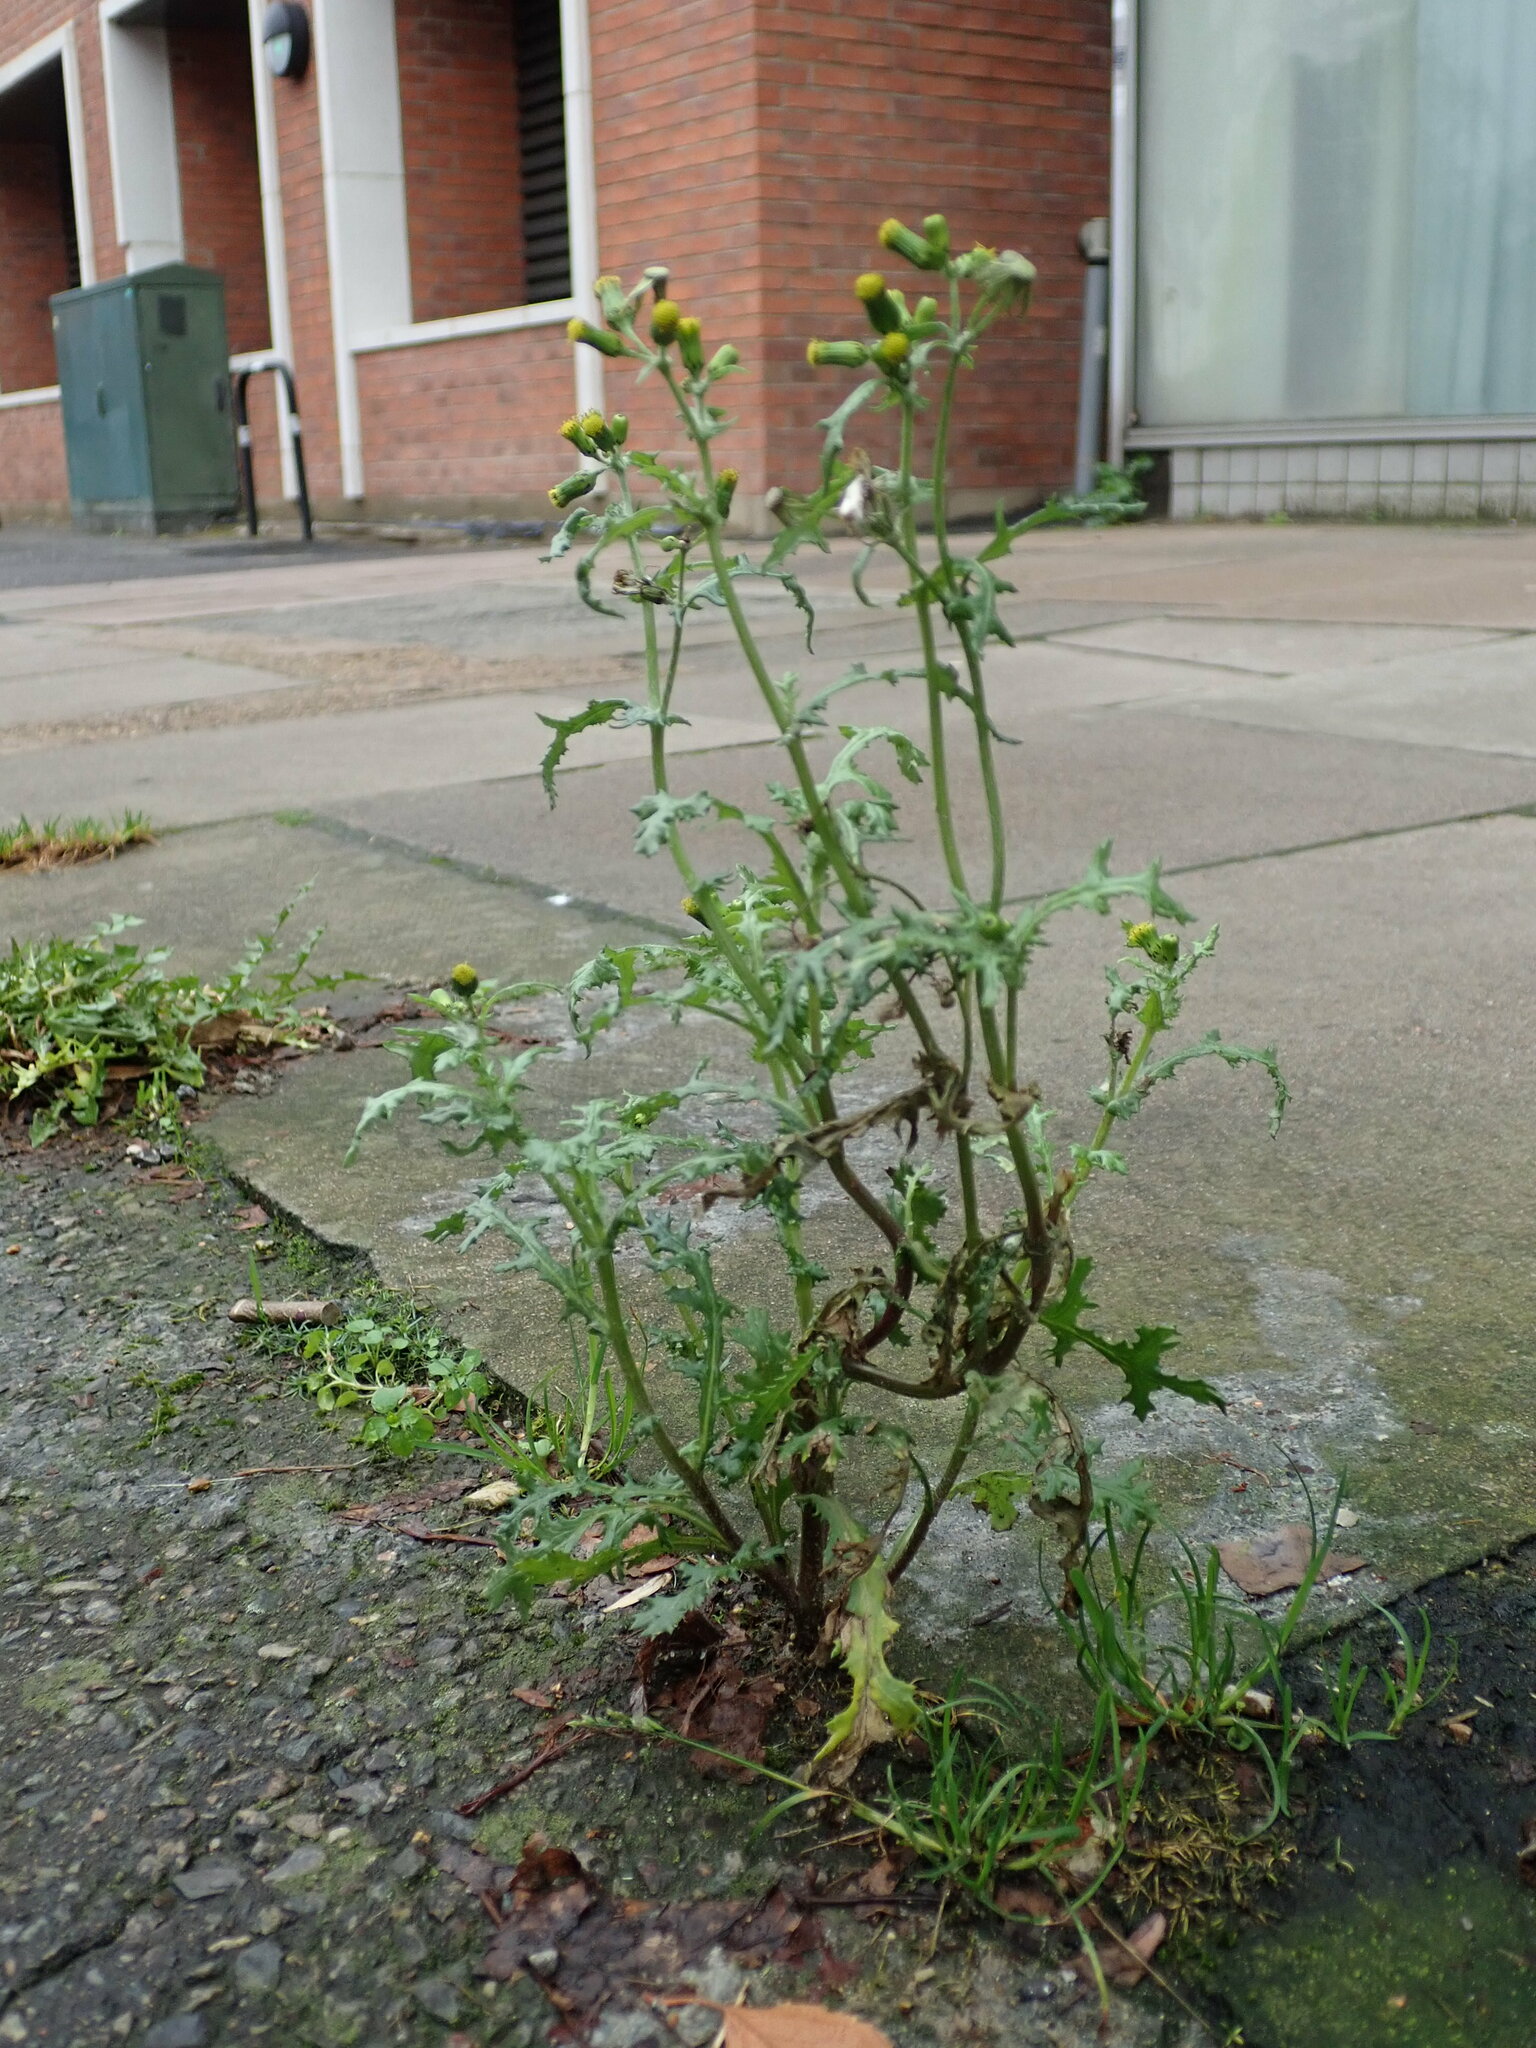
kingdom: Plantae
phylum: Tracheophyta
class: Magnoliopsida
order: Asterales
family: Asteraceae
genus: Senecio
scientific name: Senecio vulgaris
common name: Old-man-in-the-spring
